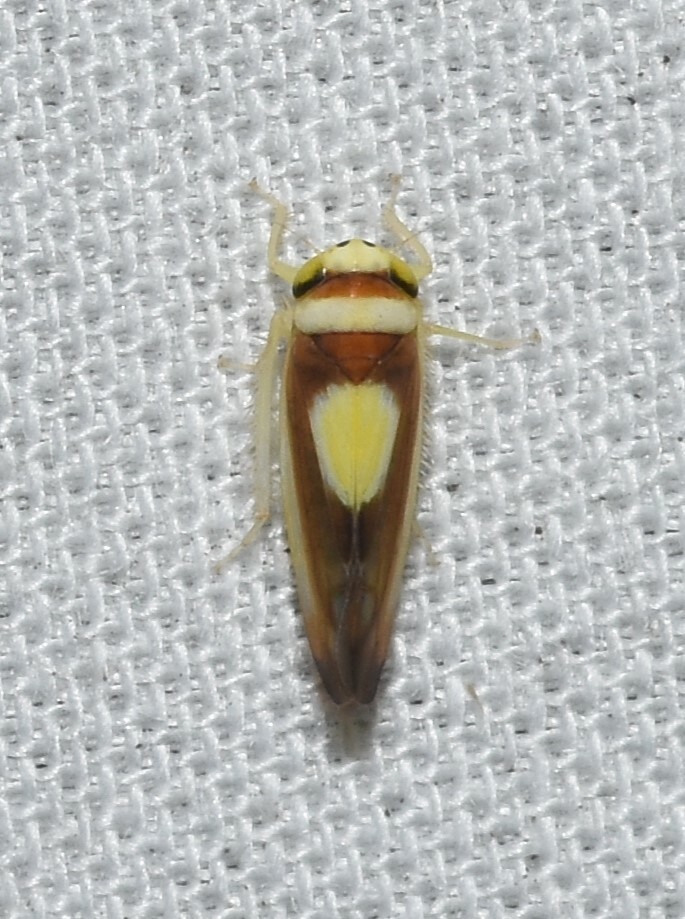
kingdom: Animalia
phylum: Arthropoda
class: Insecta
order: Hemiptera
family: Cicadellidae
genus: Colladonus
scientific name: Colladonus clitellarius
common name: The saddleback leafhopper
